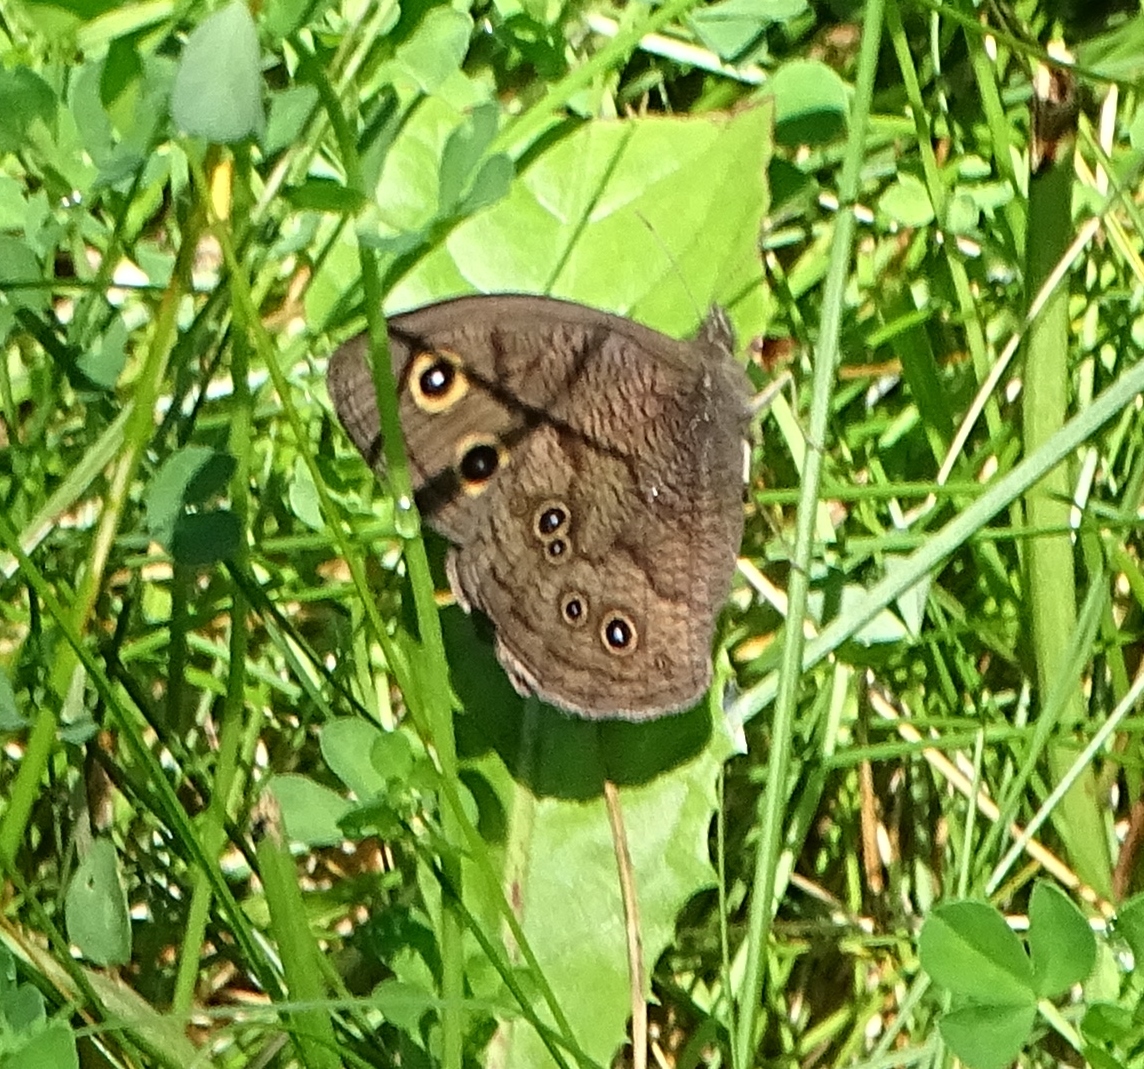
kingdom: Animalia
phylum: Arthropoda
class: Insecta
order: Lepidoptera
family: Nymphalidae
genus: Cercyonis
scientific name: Cercyonis pegala
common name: Common wood-nymph
